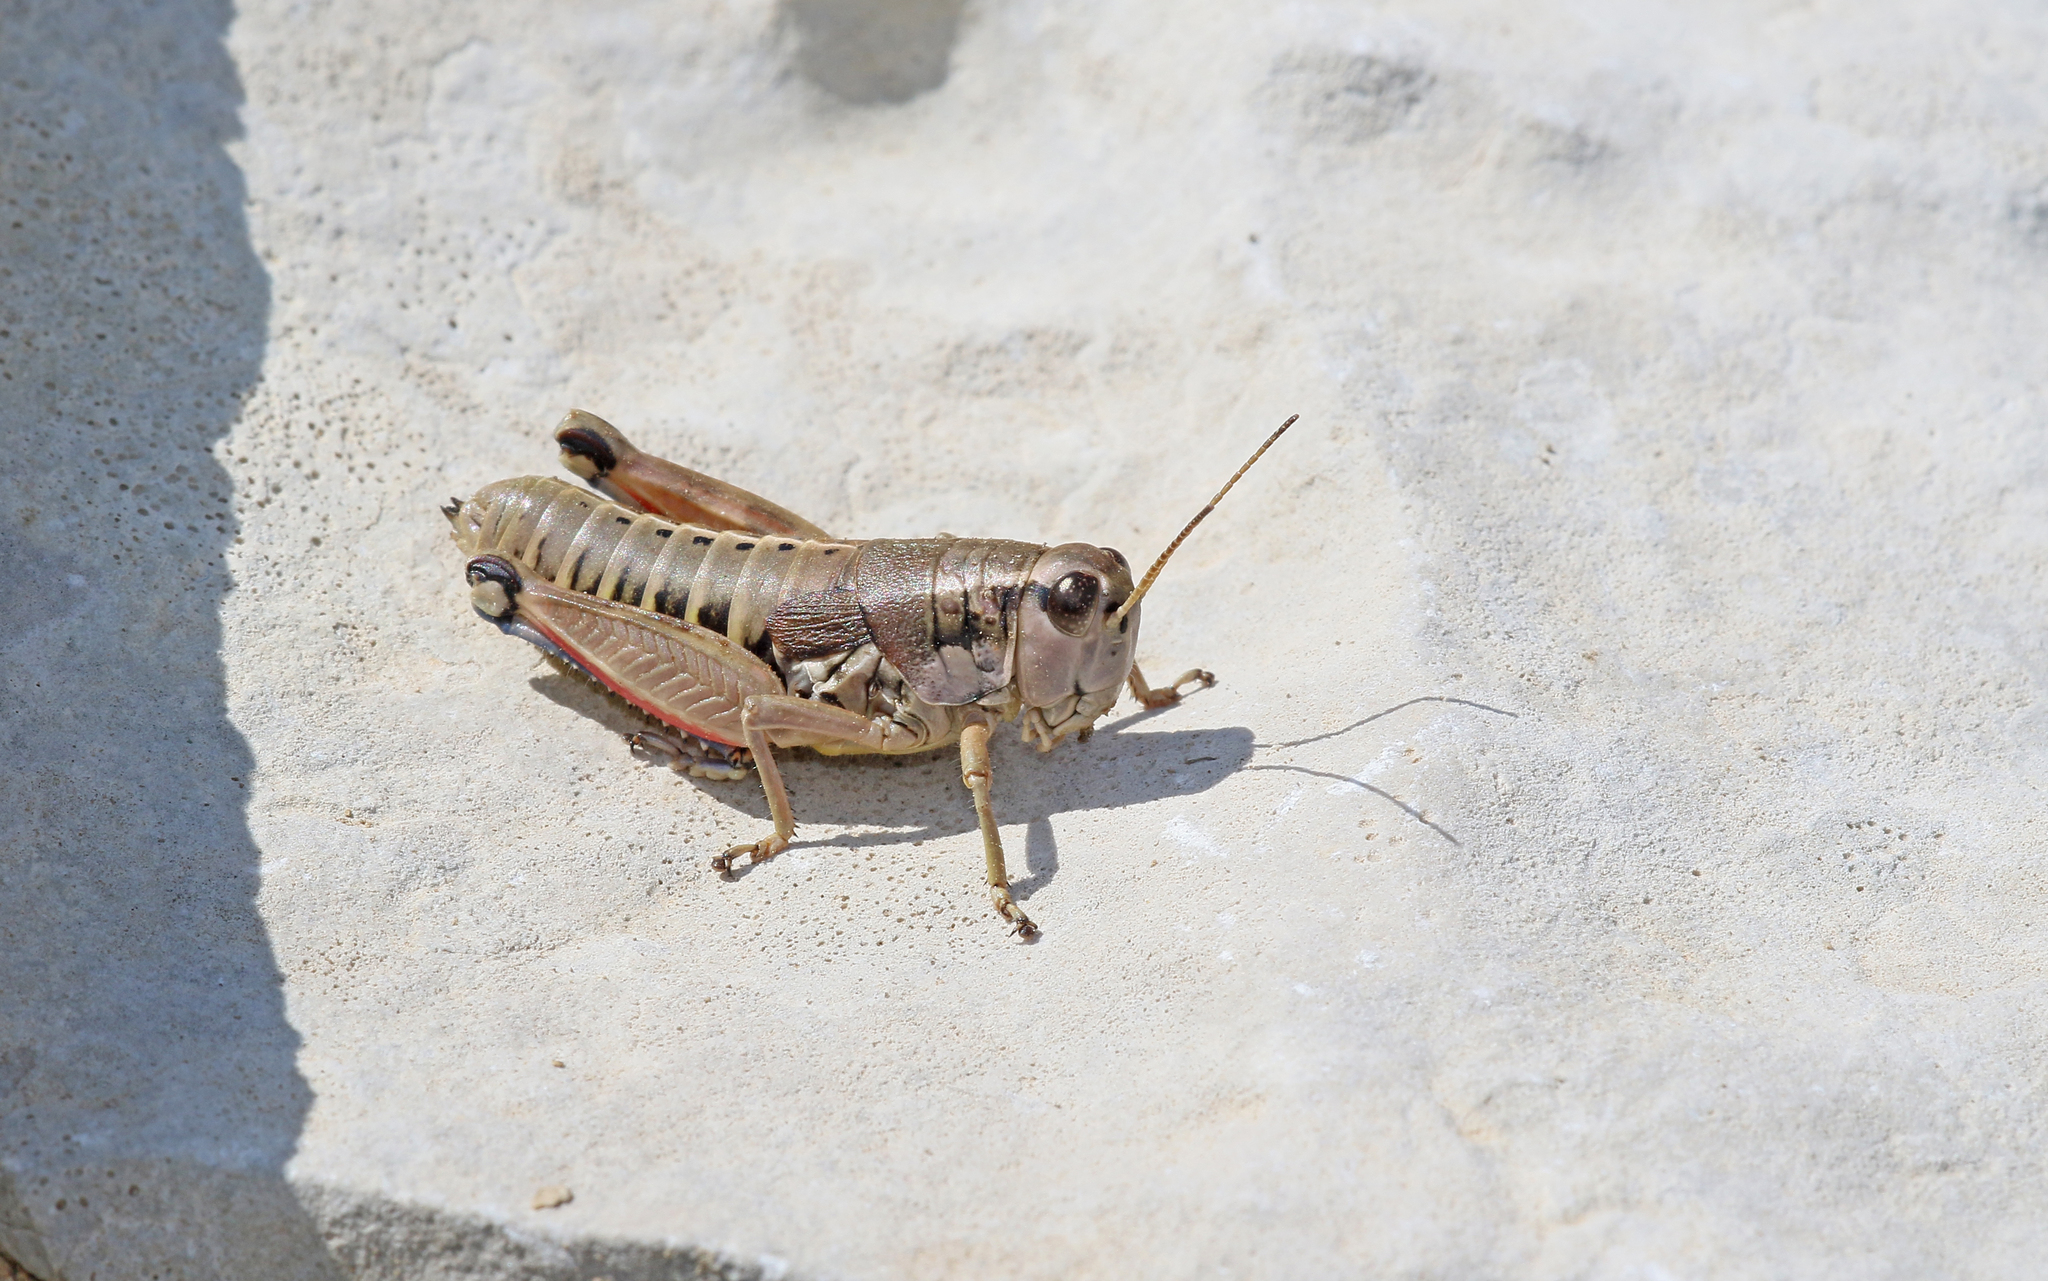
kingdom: Animalia
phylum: Arthropoda
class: Insecta
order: Orthoptera
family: Acrididae
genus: Podisma
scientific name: Podisma amedegnatoae
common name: Ventoux mountain grasshopper
